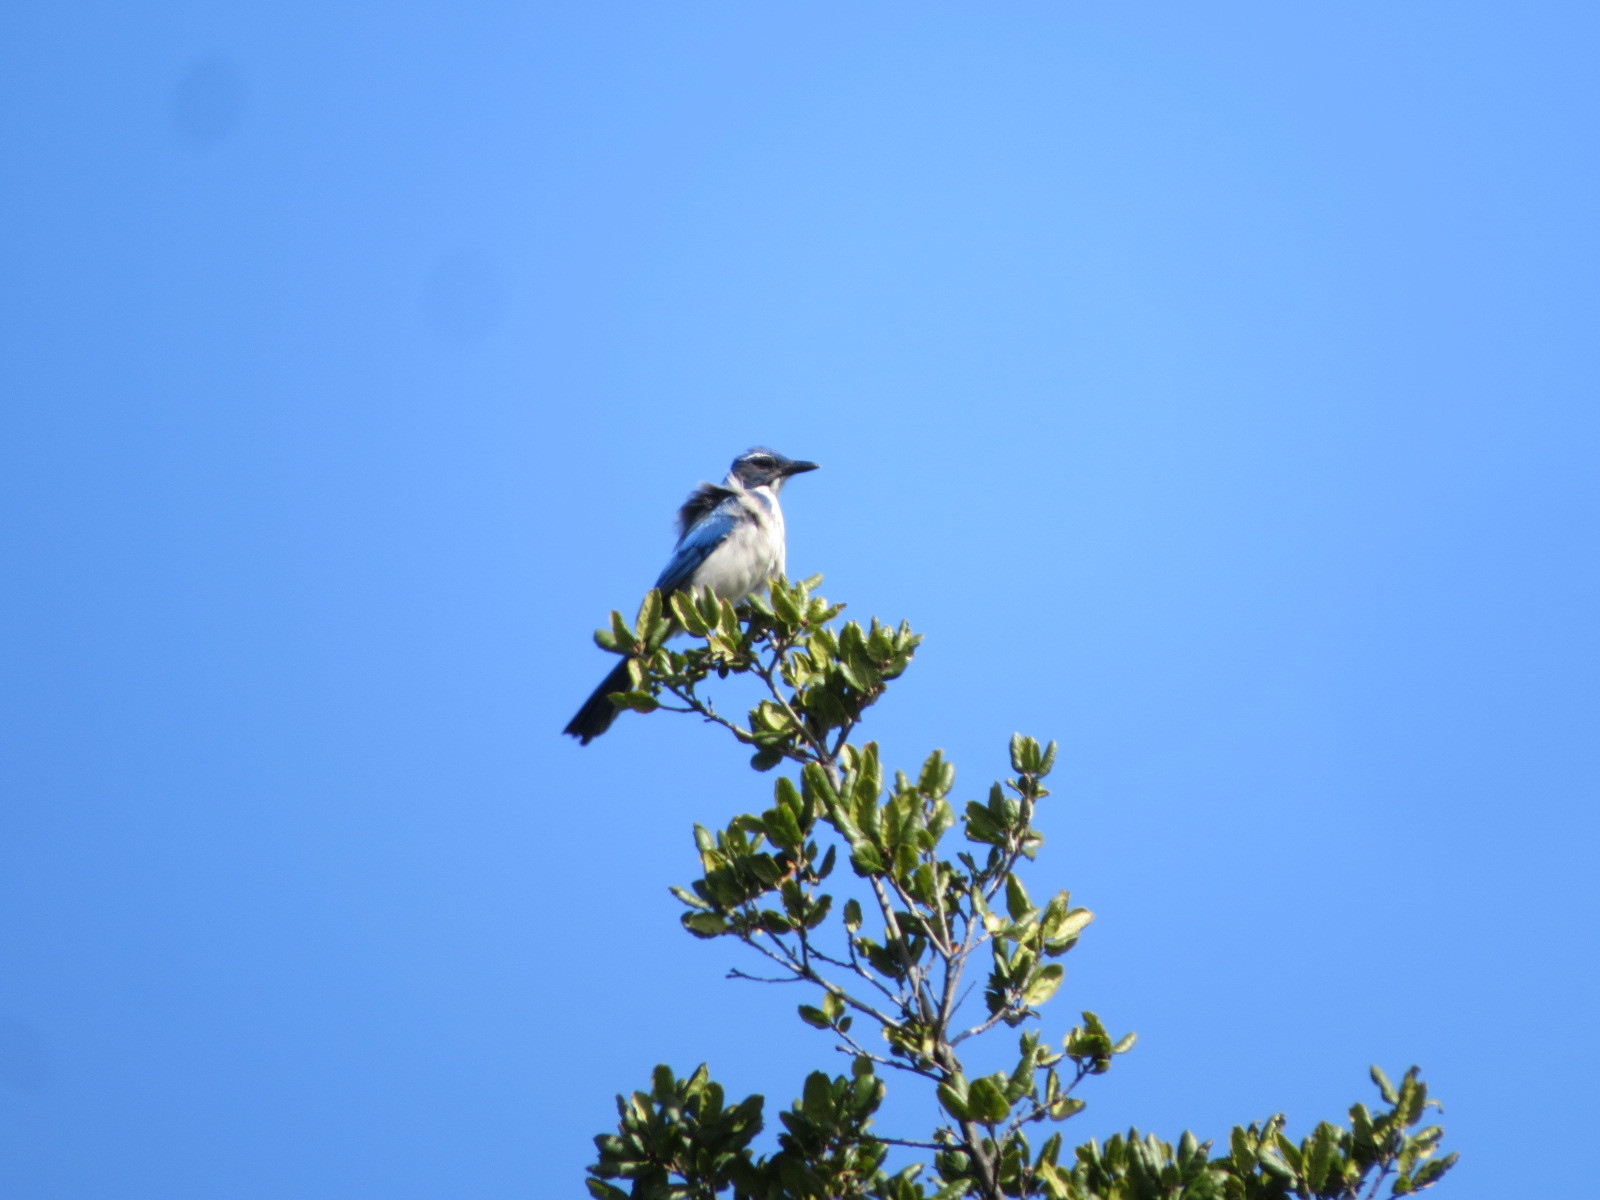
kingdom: Animalia
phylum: Chordata
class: Aves
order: Passeriformes
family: Corvidae
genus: Aphelocoma
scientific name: Aphelocoma californica
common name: California scrub-jay
